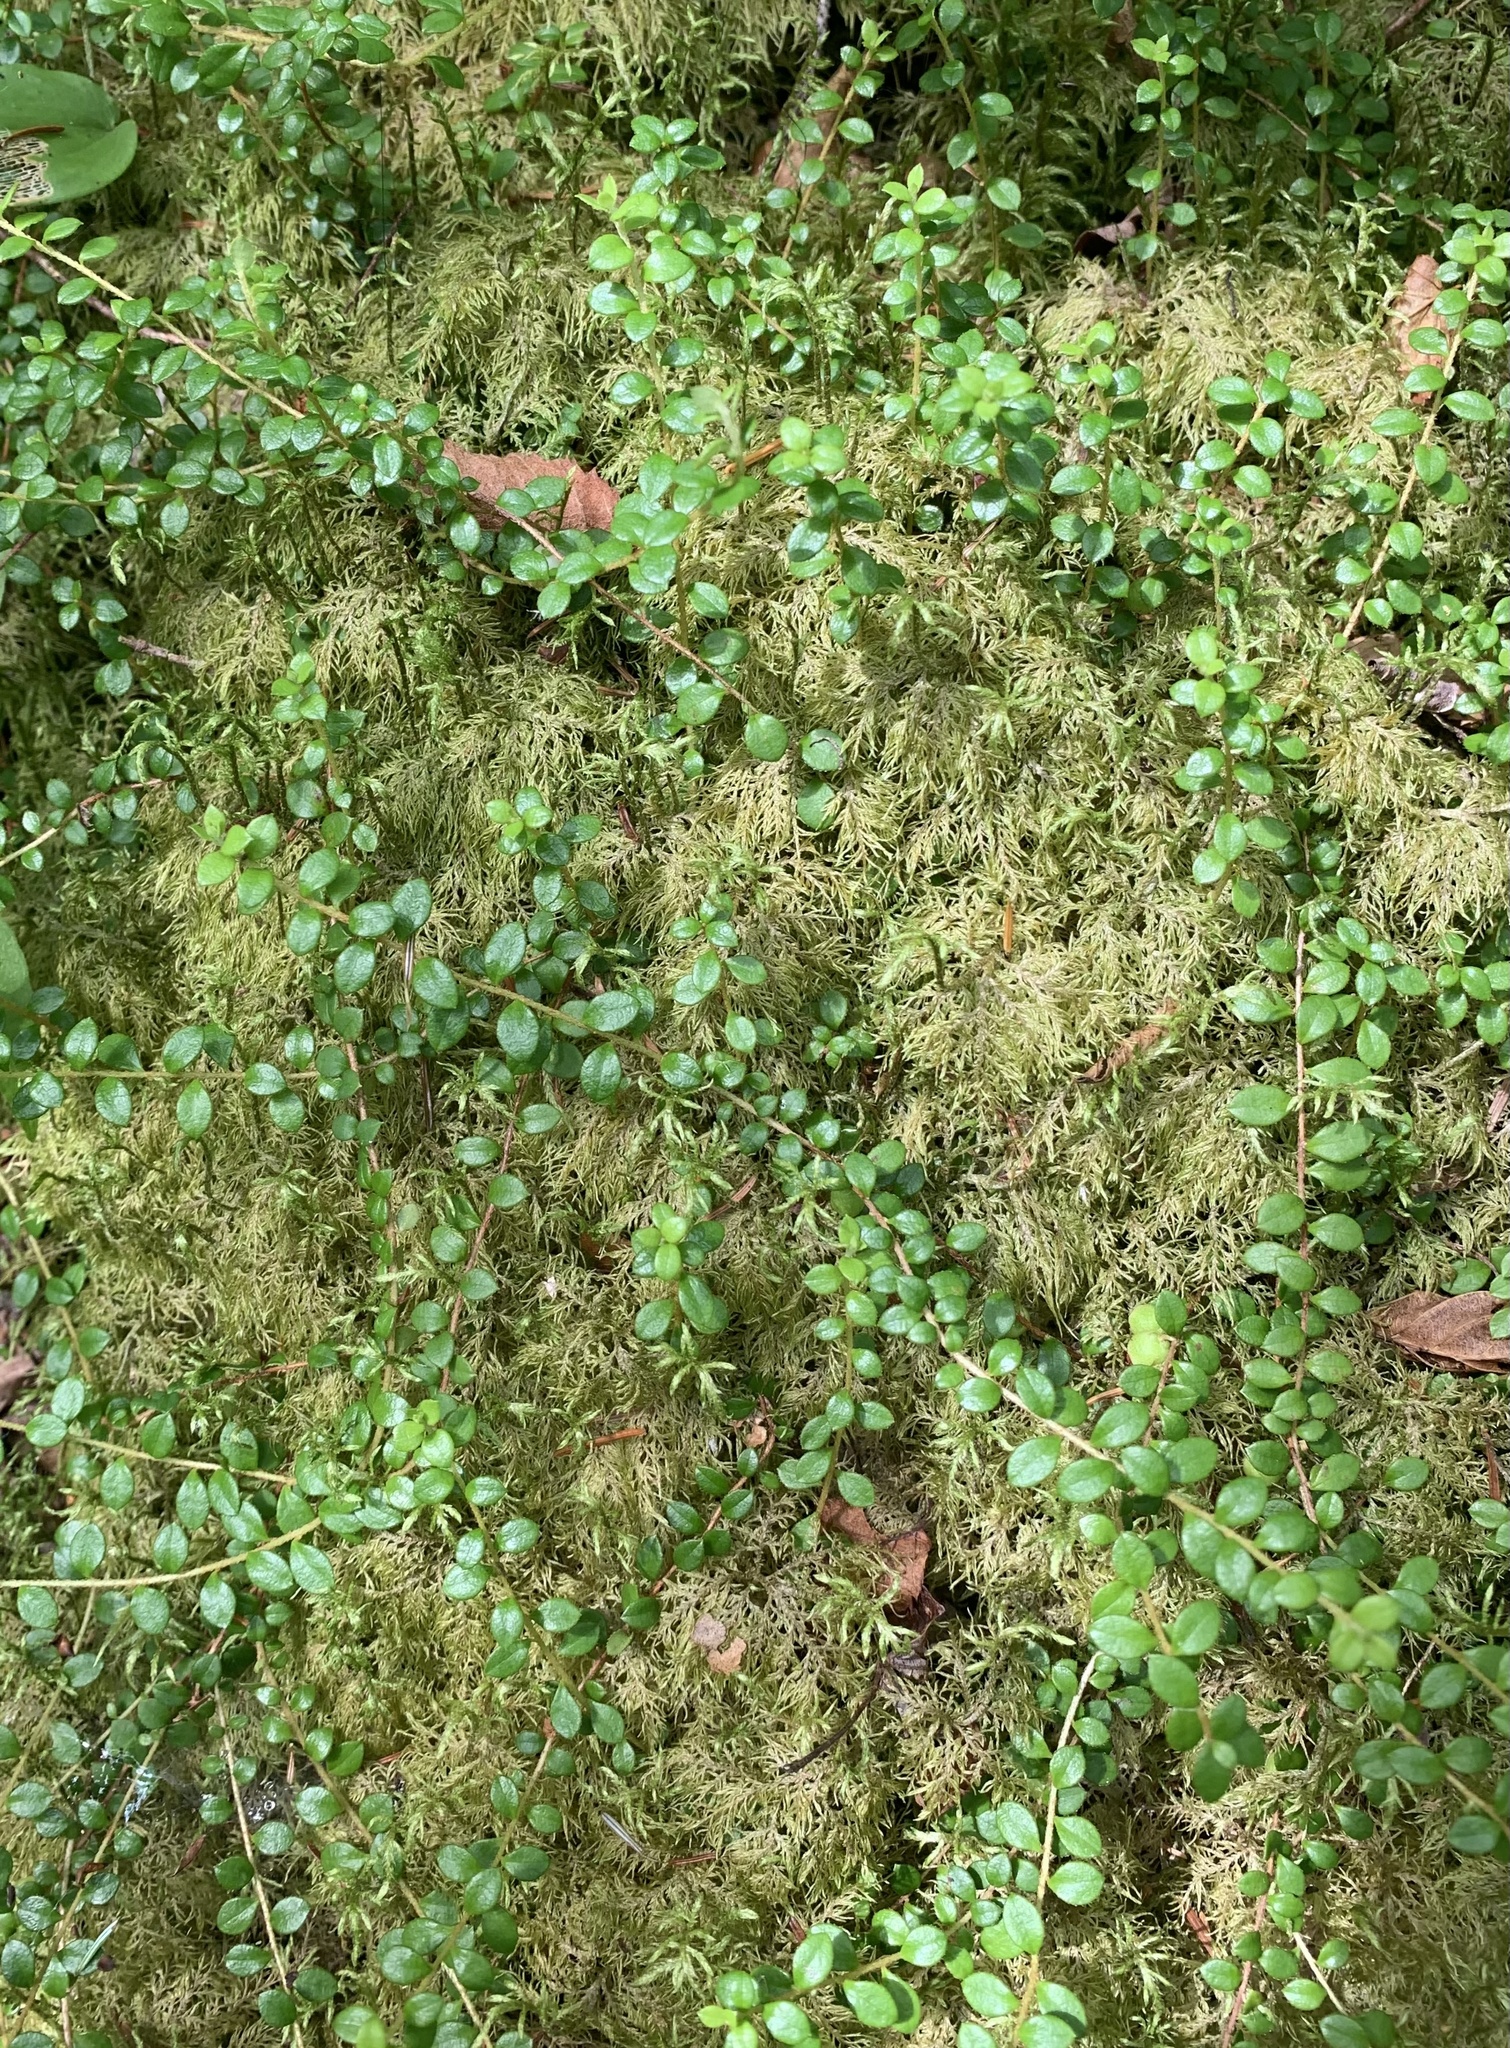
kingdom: Plantae
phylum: Tracheophyta
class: Magnoliopsida
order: Ericales
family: Ericaceae
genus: Gaultheria
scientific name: Gaultheria hispidula
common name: Cancer wintergreen
